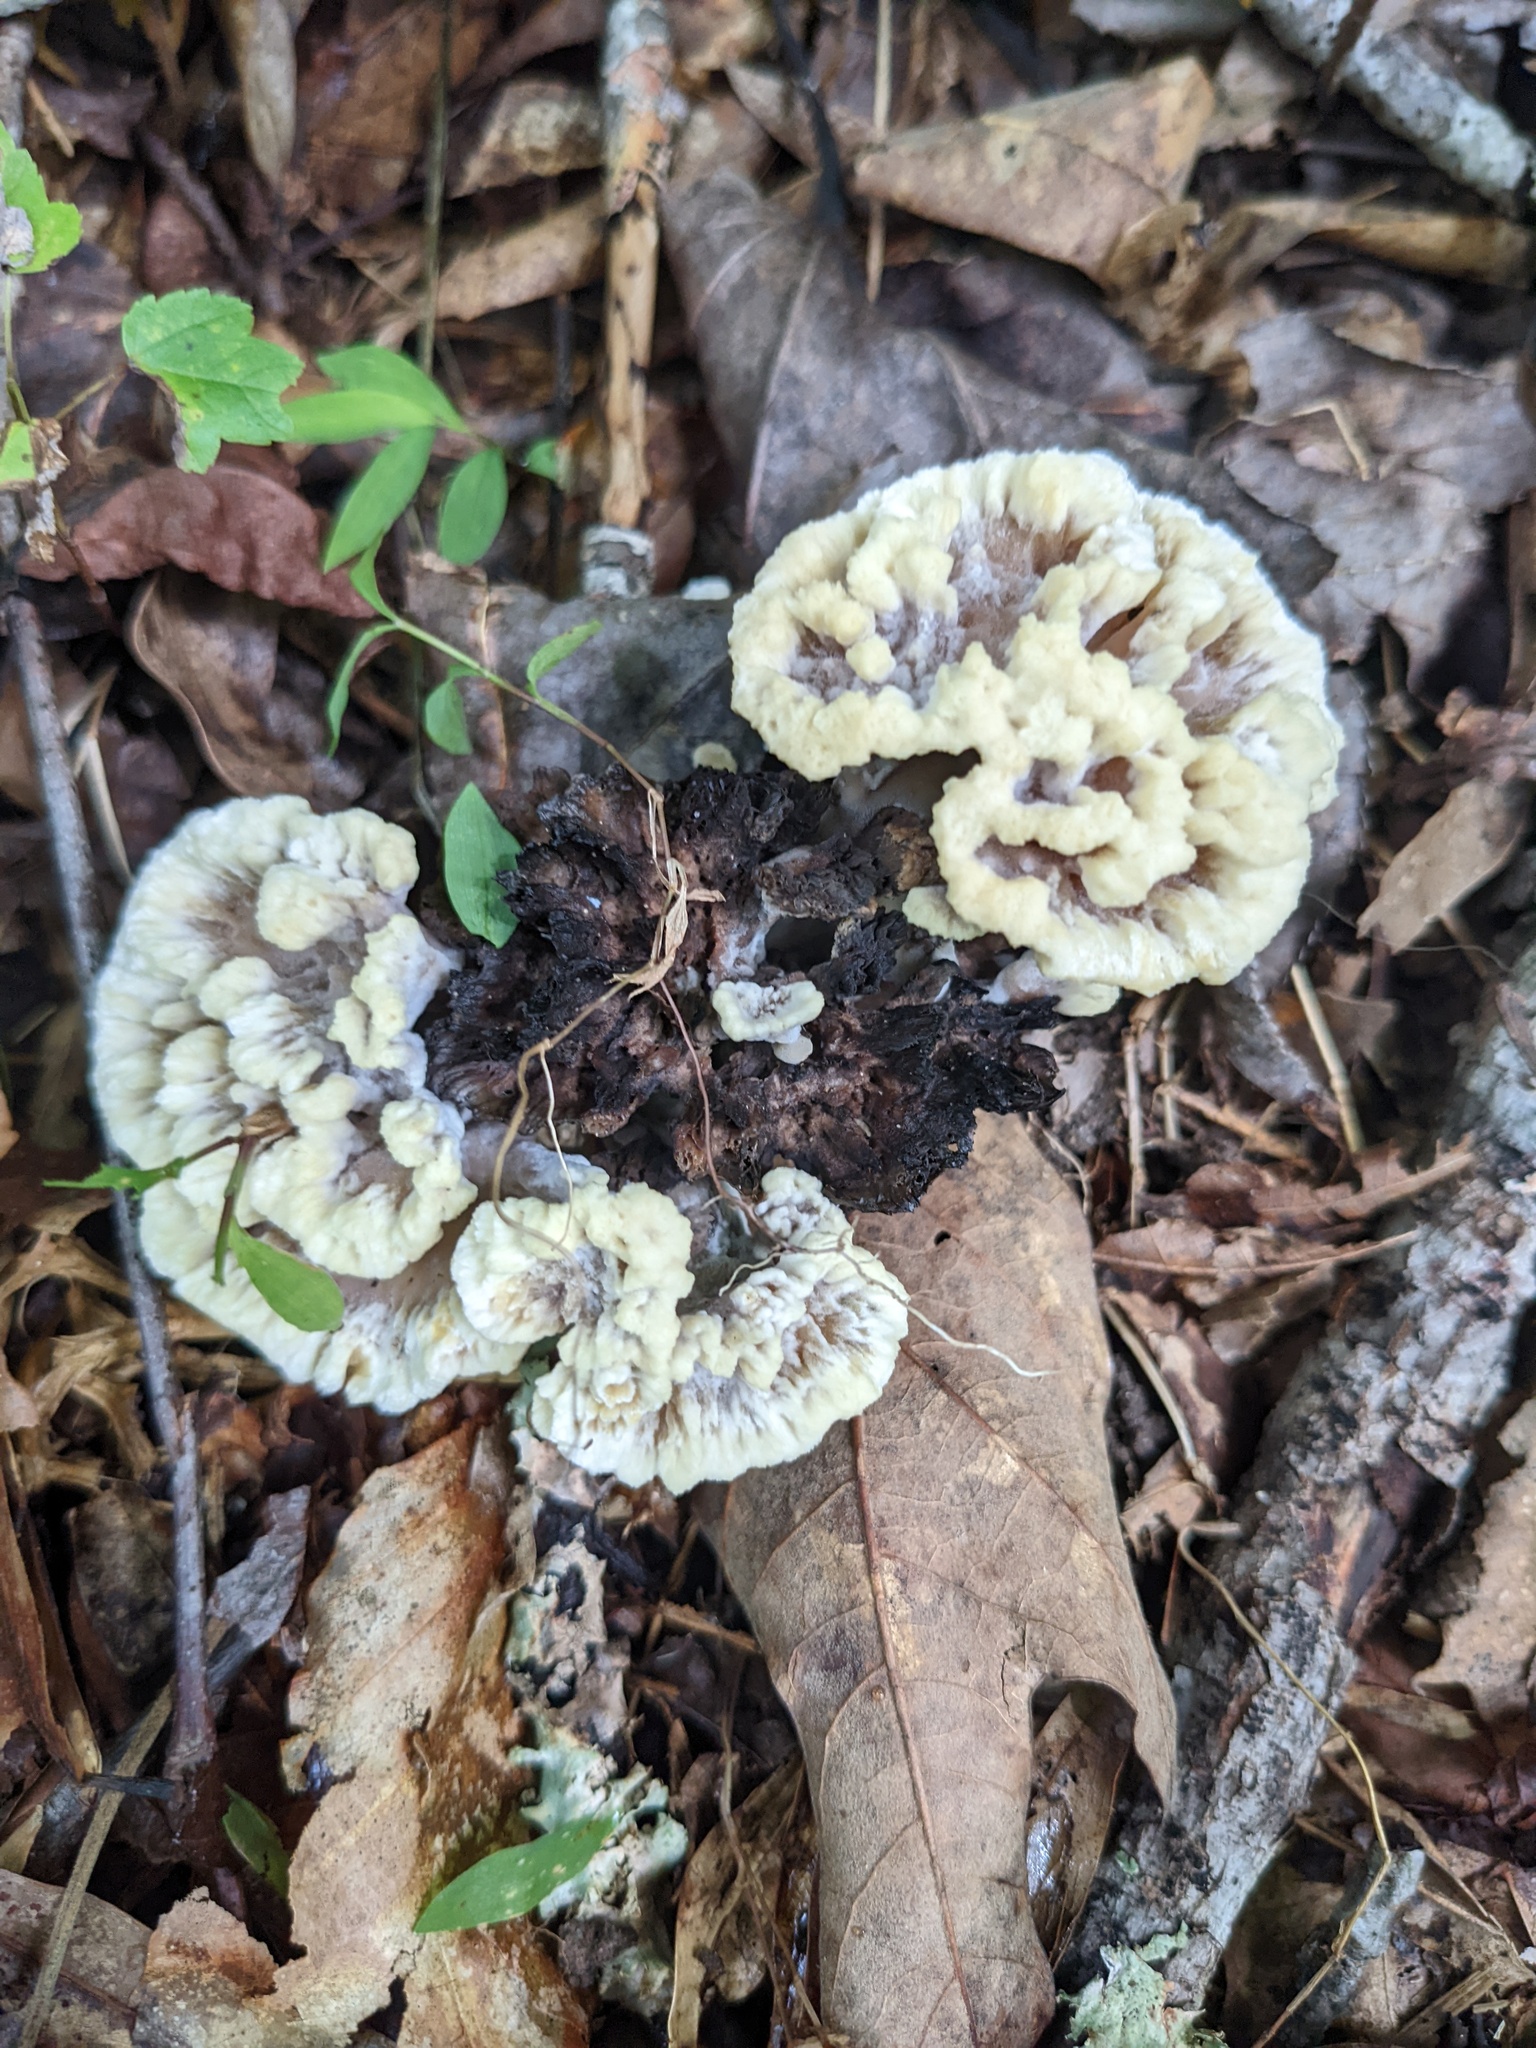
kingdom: Fungi
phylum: Basidiomycota
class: Agaricomycetes
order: Thelephorales
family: Thelephoraceae
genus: Thelephora
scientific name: Thelephora vialis
